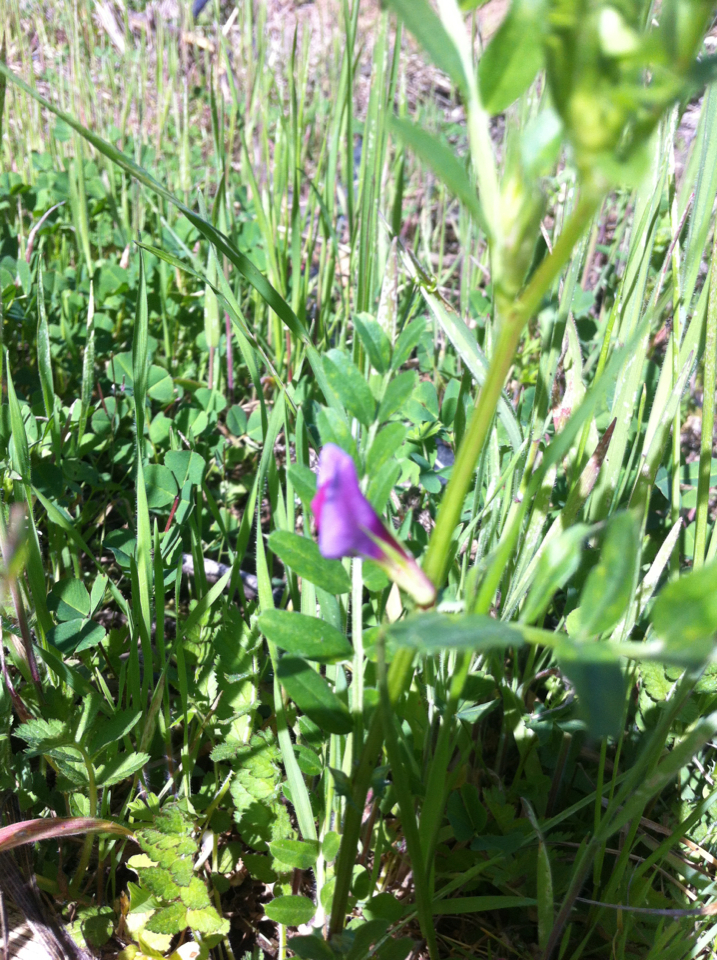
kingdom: Plantae
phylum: Tracheophyta
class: Magnoliopsida
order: Fabales
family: Fabaceae
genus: Vicia
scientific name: Vicia sativa
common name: Garden vetch
